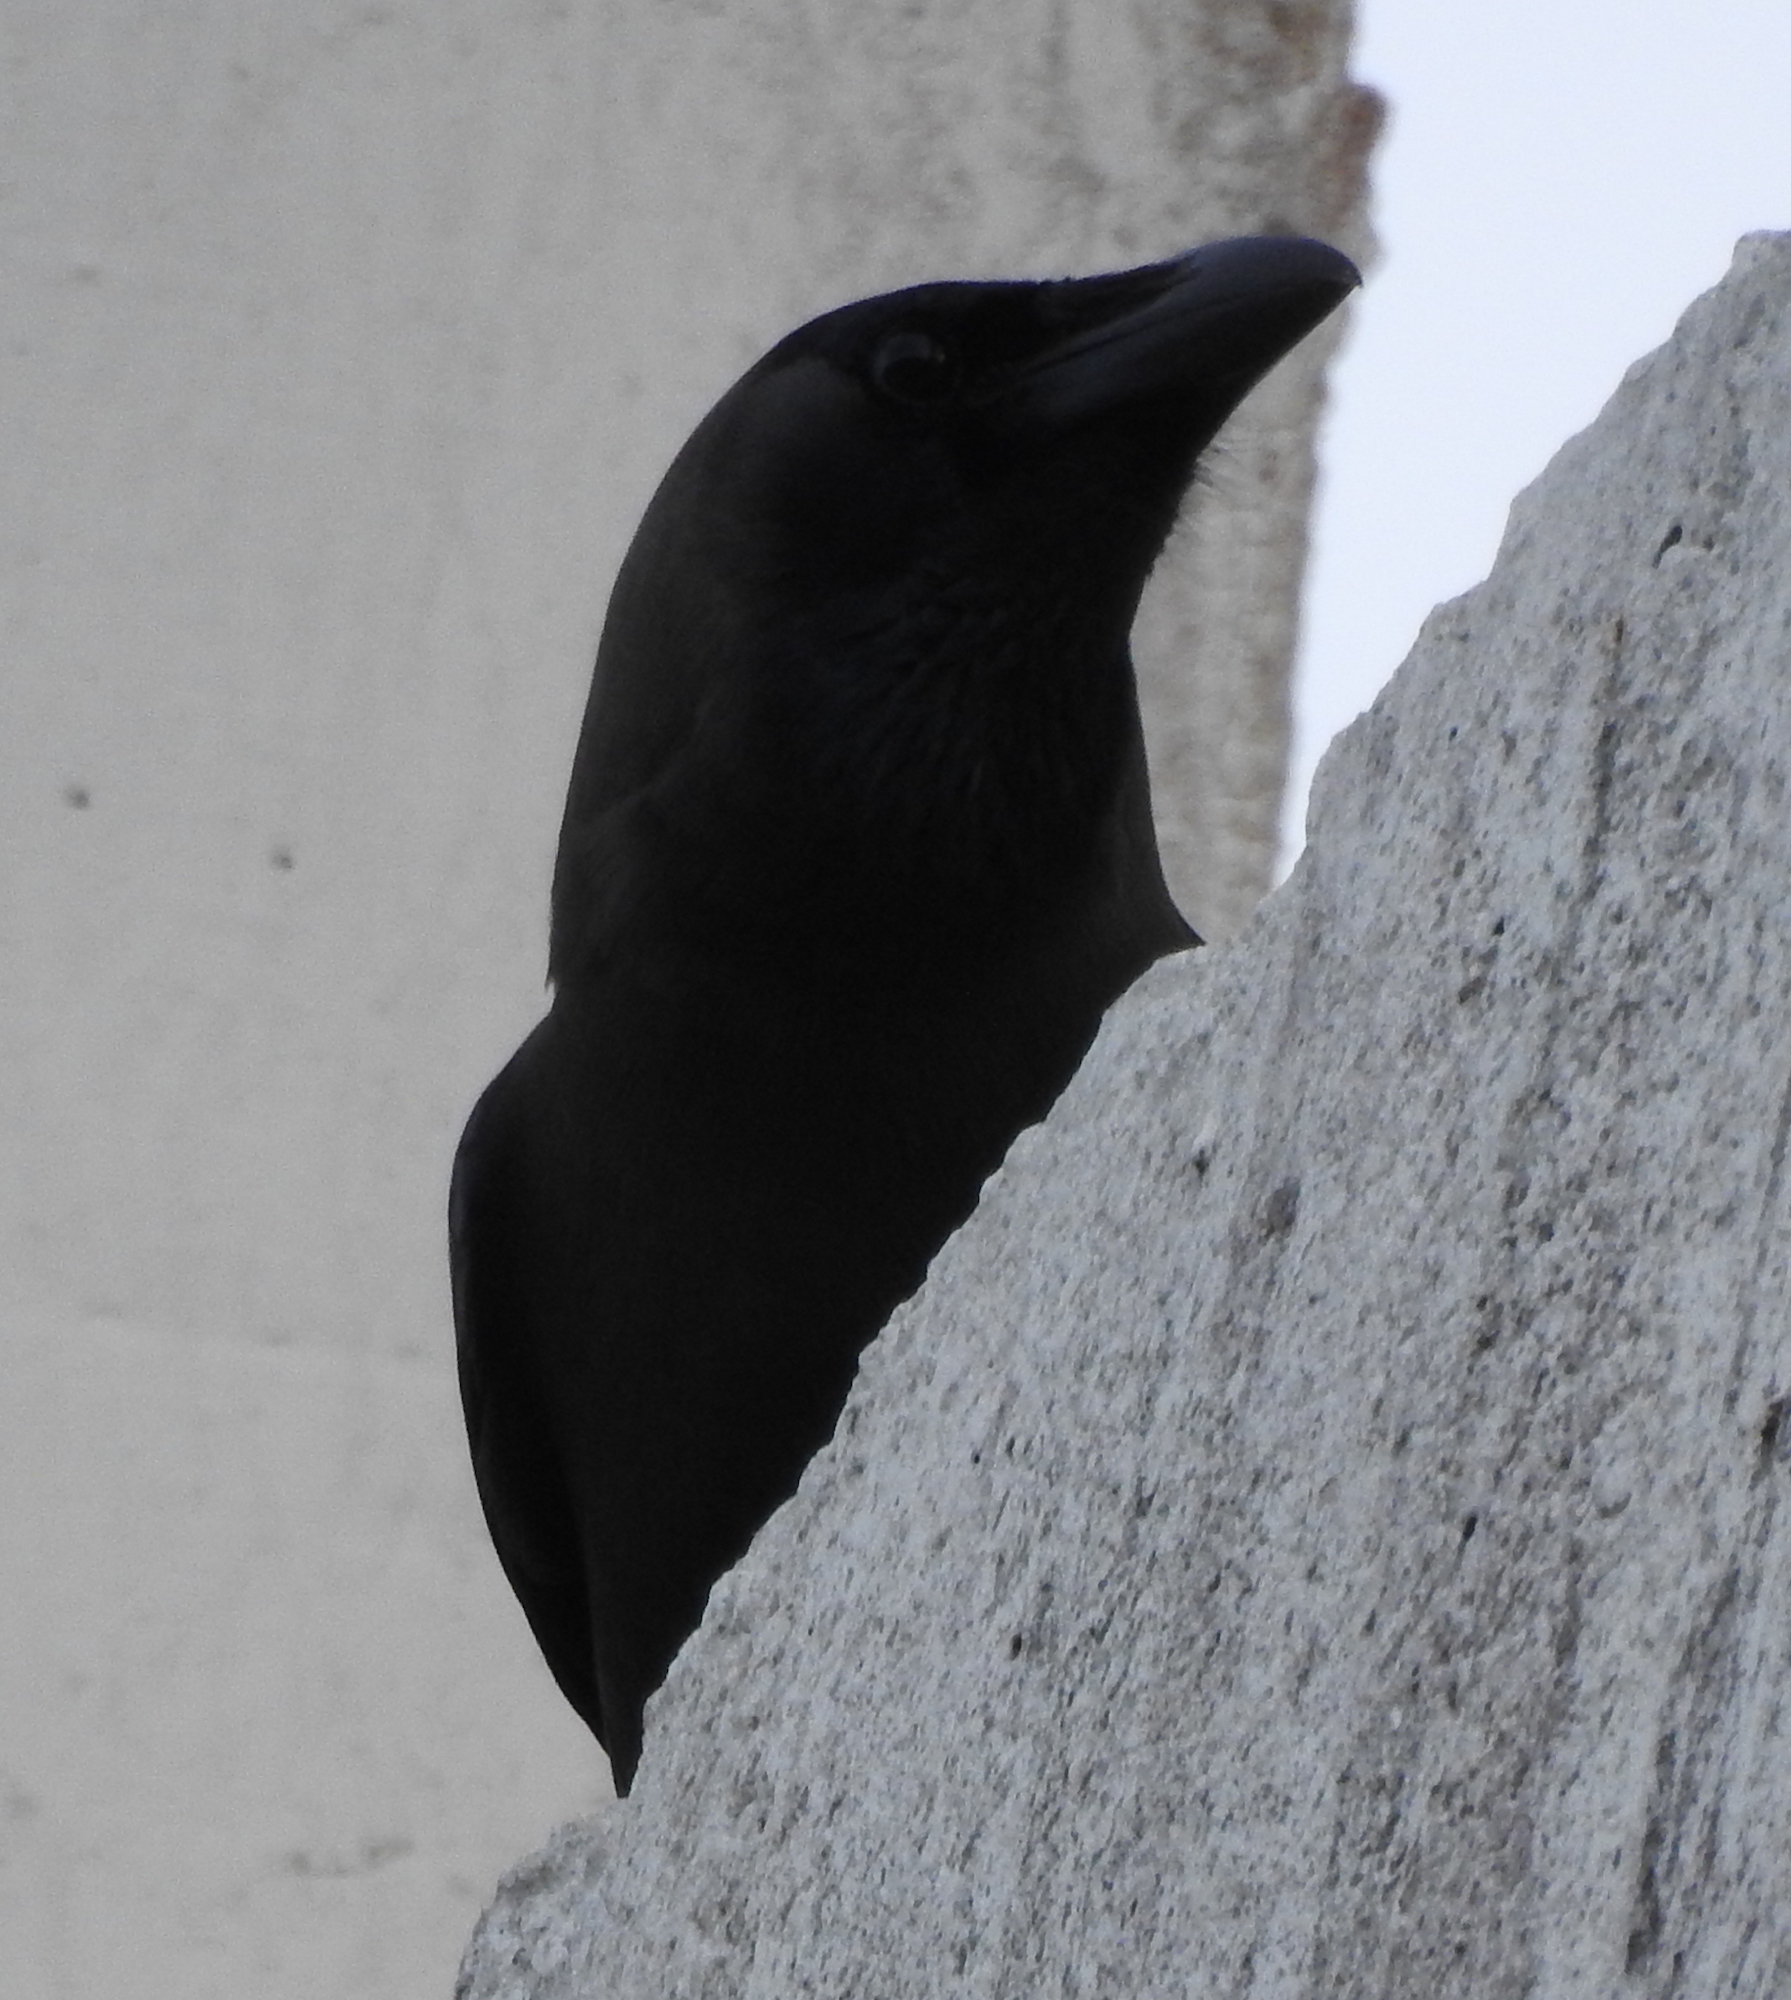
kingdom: Animalia
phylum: Chordata
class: Aves
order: Passeriformes
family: Corvidae
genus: Corvus
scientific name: Corvus splendens
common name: House crow
